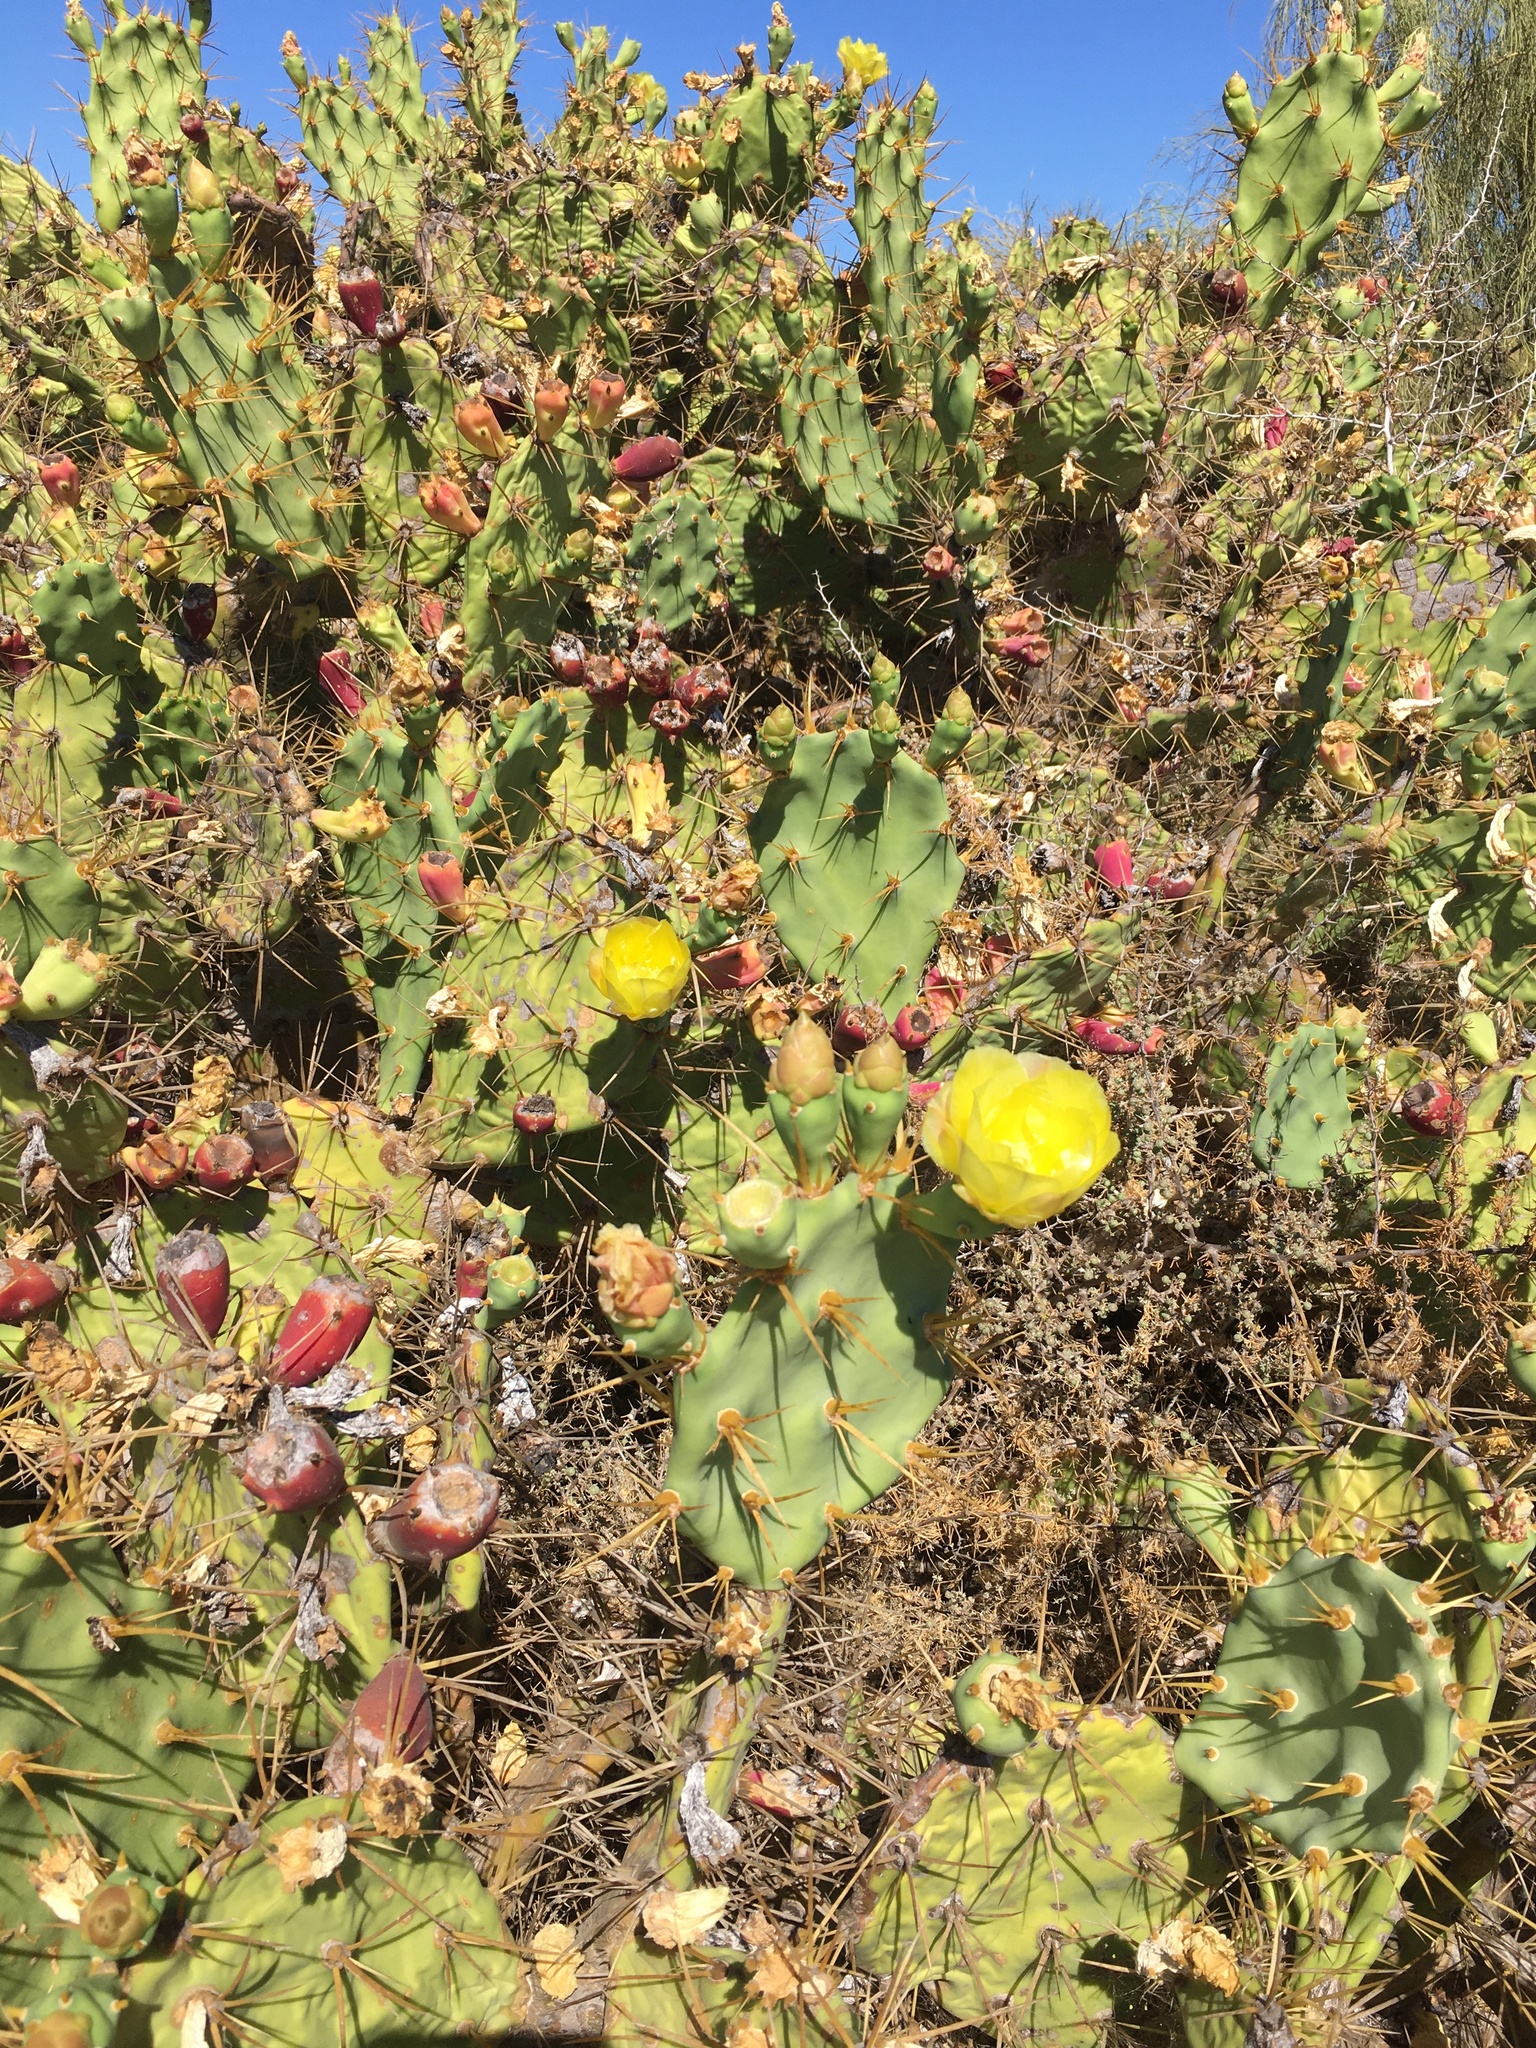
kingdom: Plantae
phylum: Tracheophyta
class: Magnoliopsida
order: Caryophyllales
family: Cactaceae
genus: Opuntia
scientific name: Opuntia stricta
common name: Erect pricklypear
